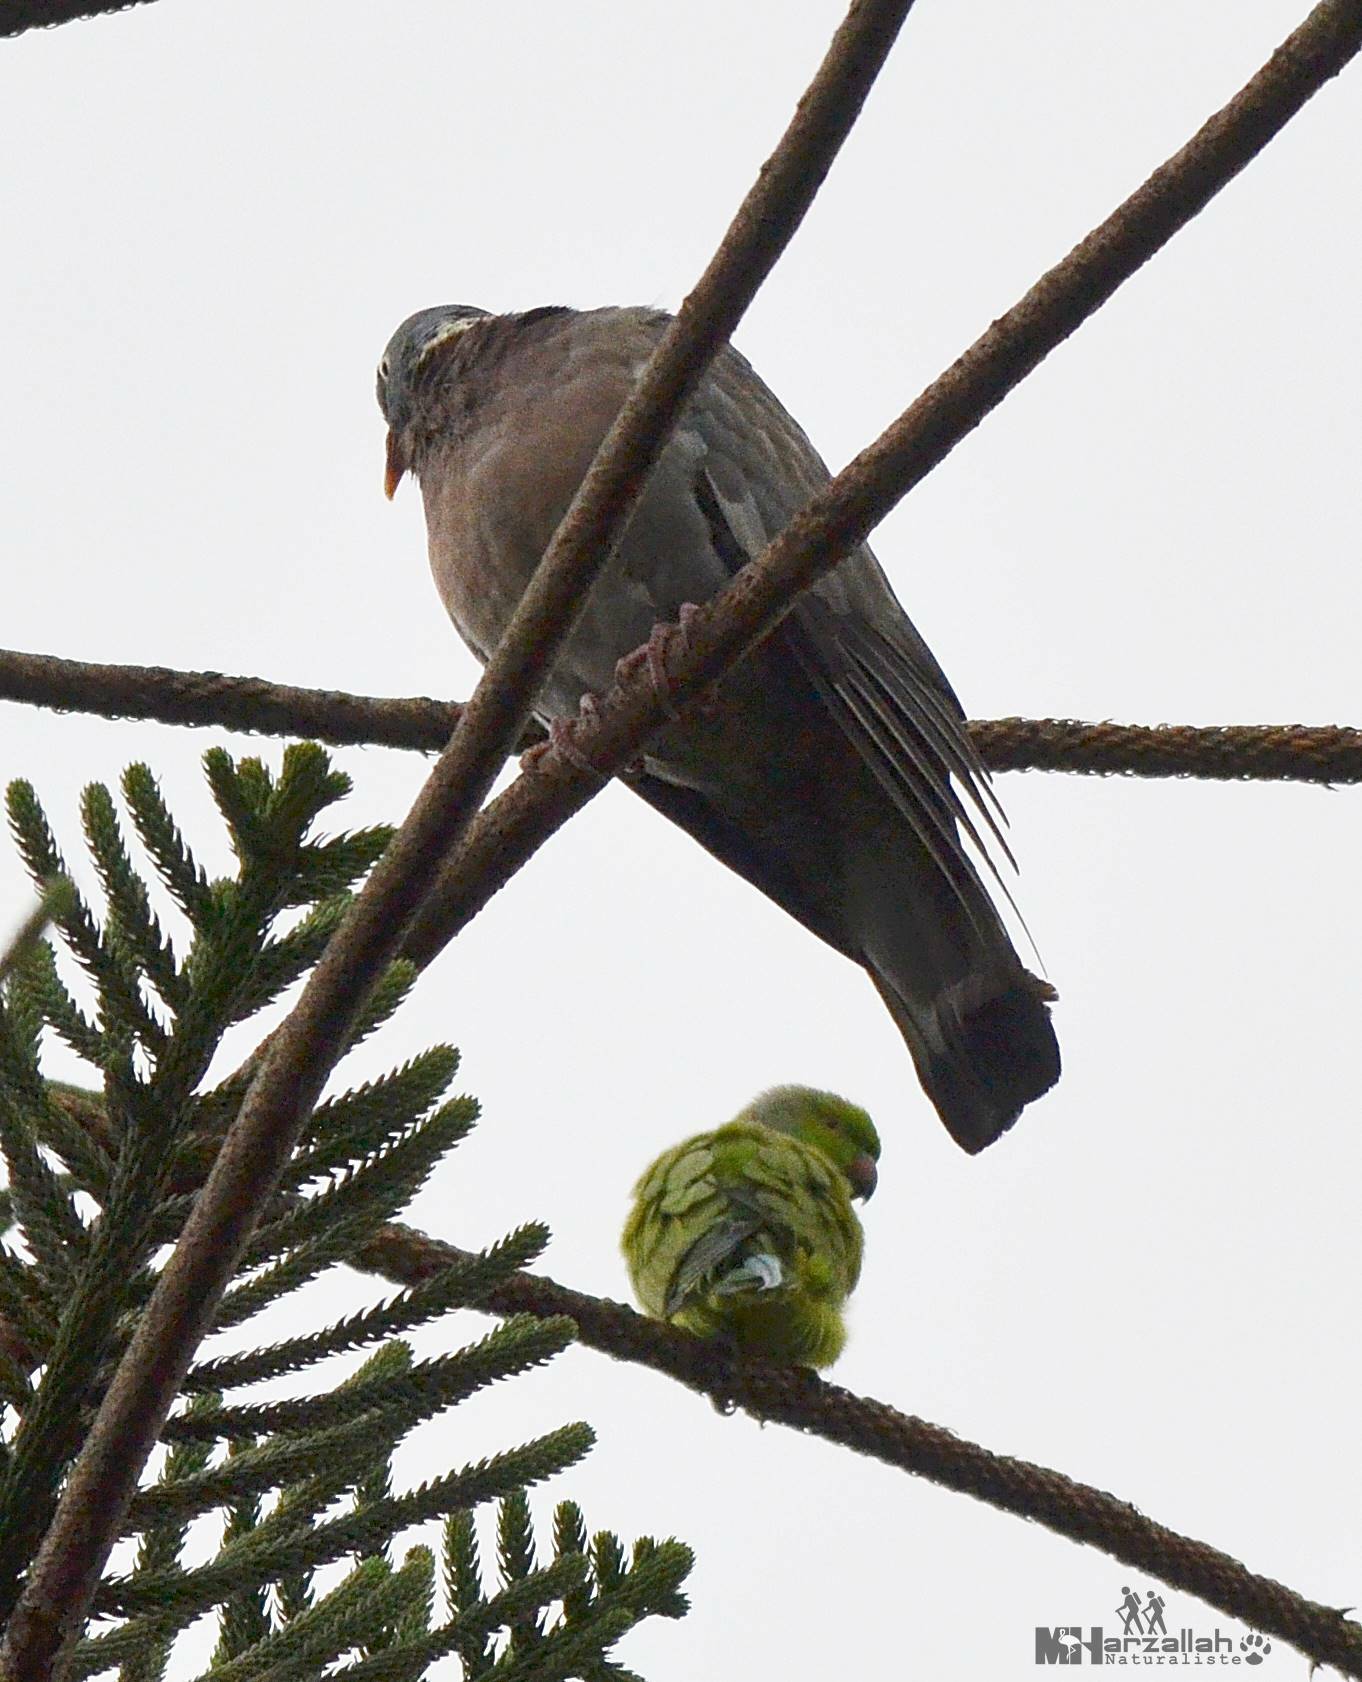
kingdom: Animalia
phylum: Chordata
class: Aves
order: Columbiformes
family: Columbidae
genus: Columba
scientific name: Columba palumbus
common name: Common wood pigeon
